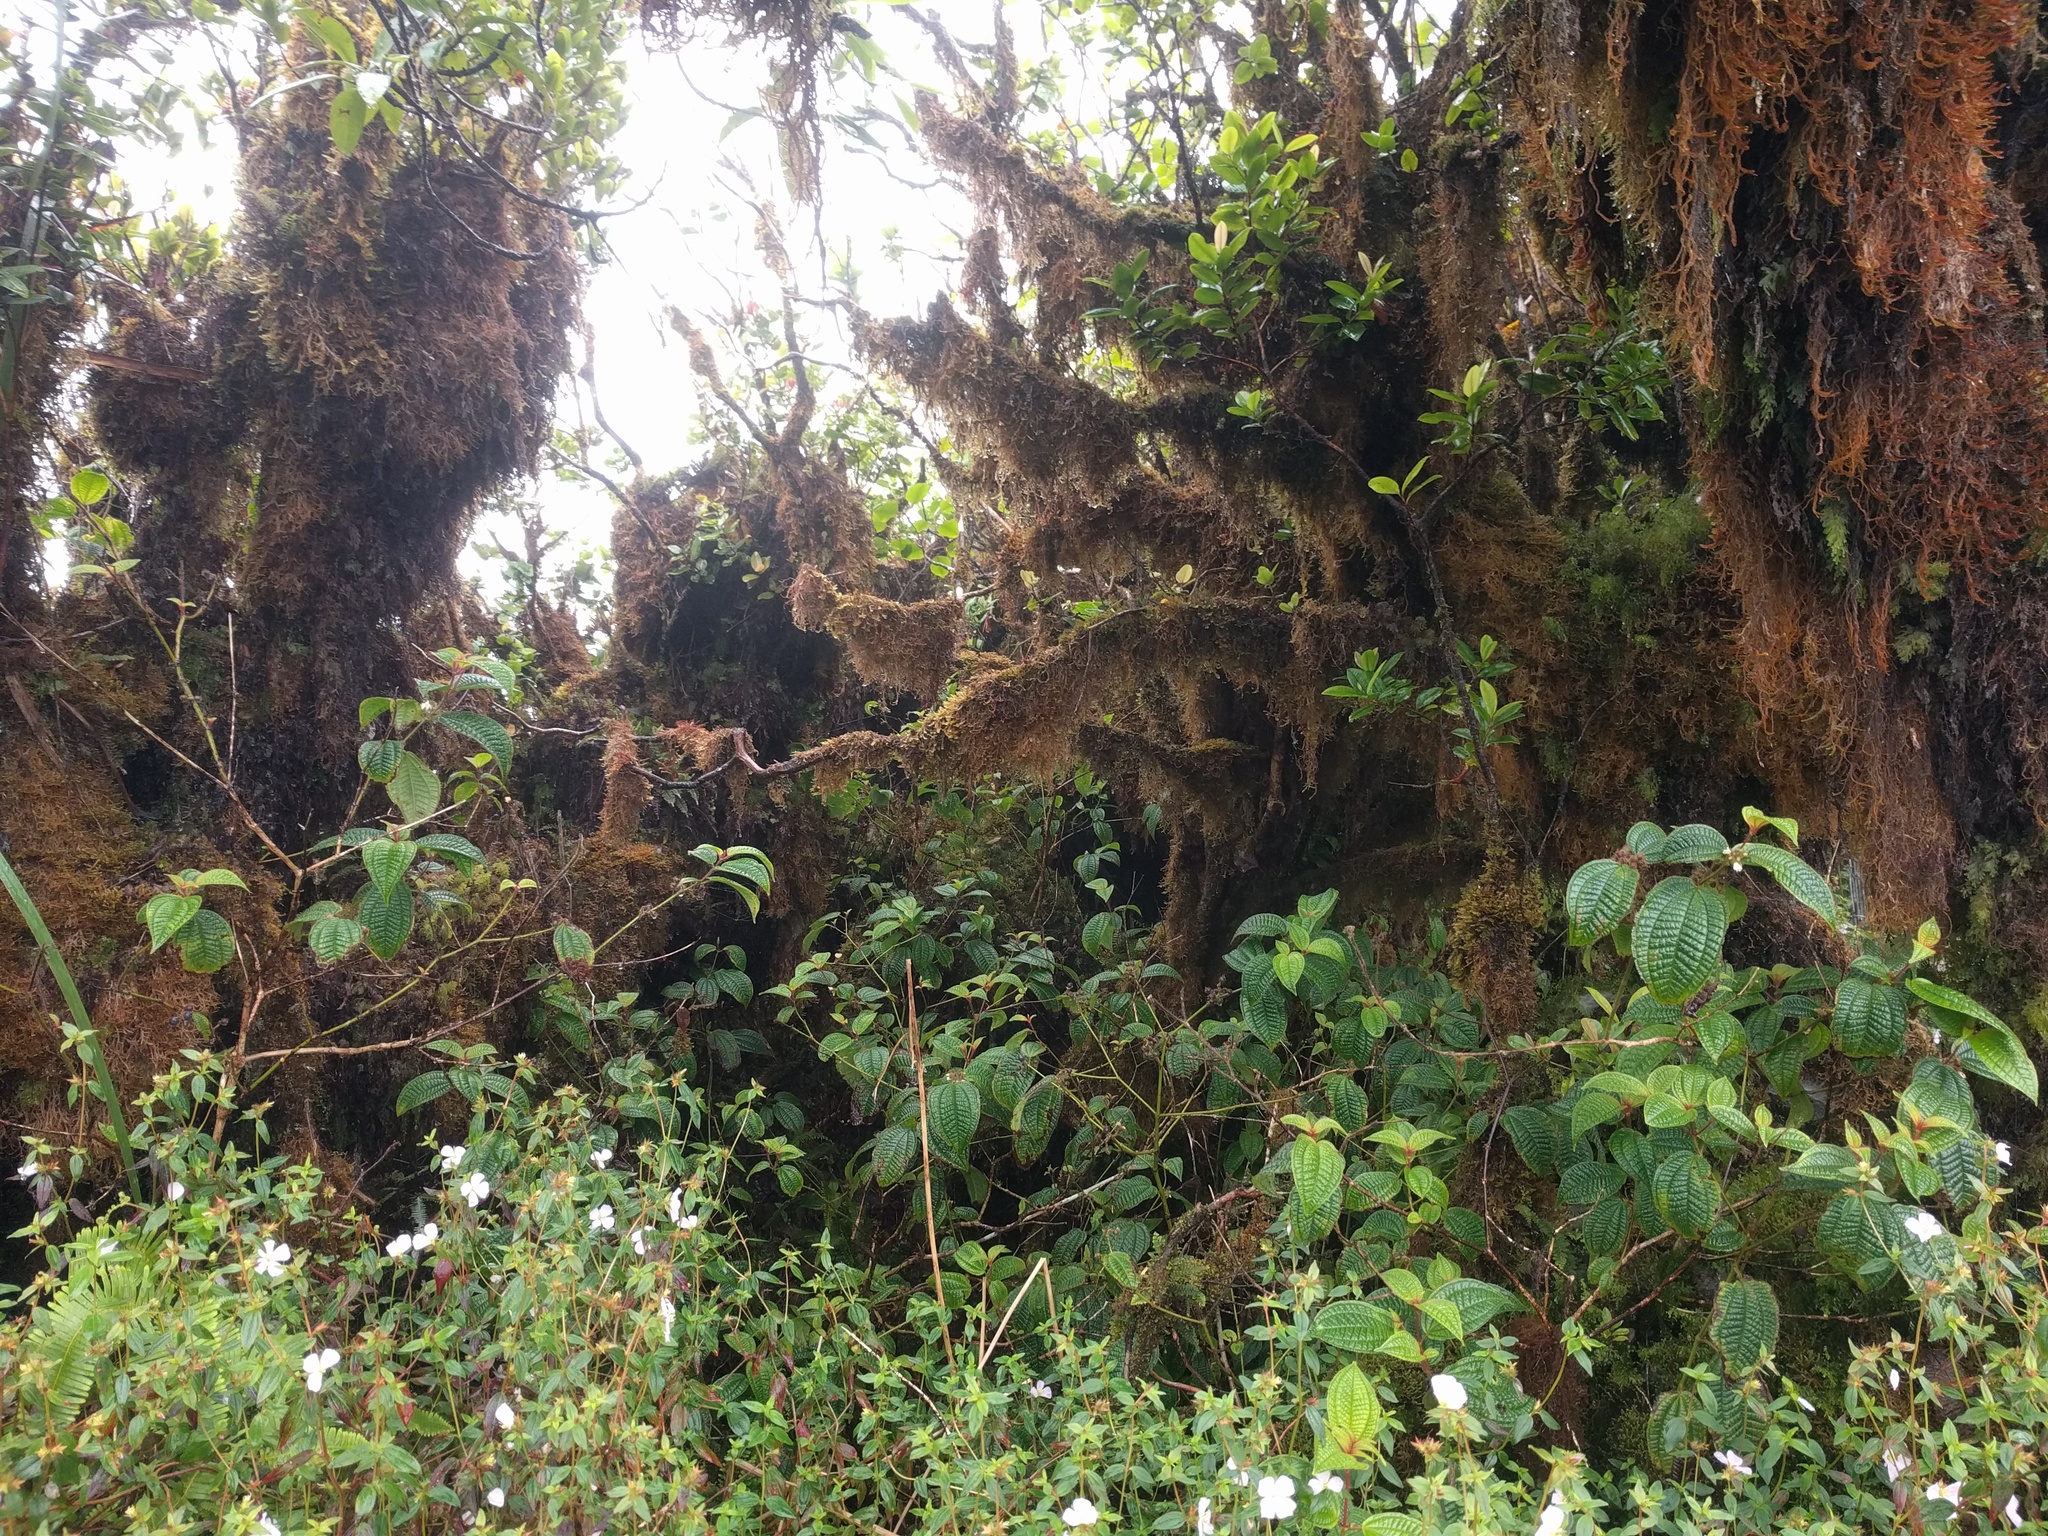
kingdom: Plantae
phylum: Tracheophyta
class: Magnoliopsida
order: Myrtales
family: Melastomataceae
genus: Miconia
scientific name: Miconia crenata
